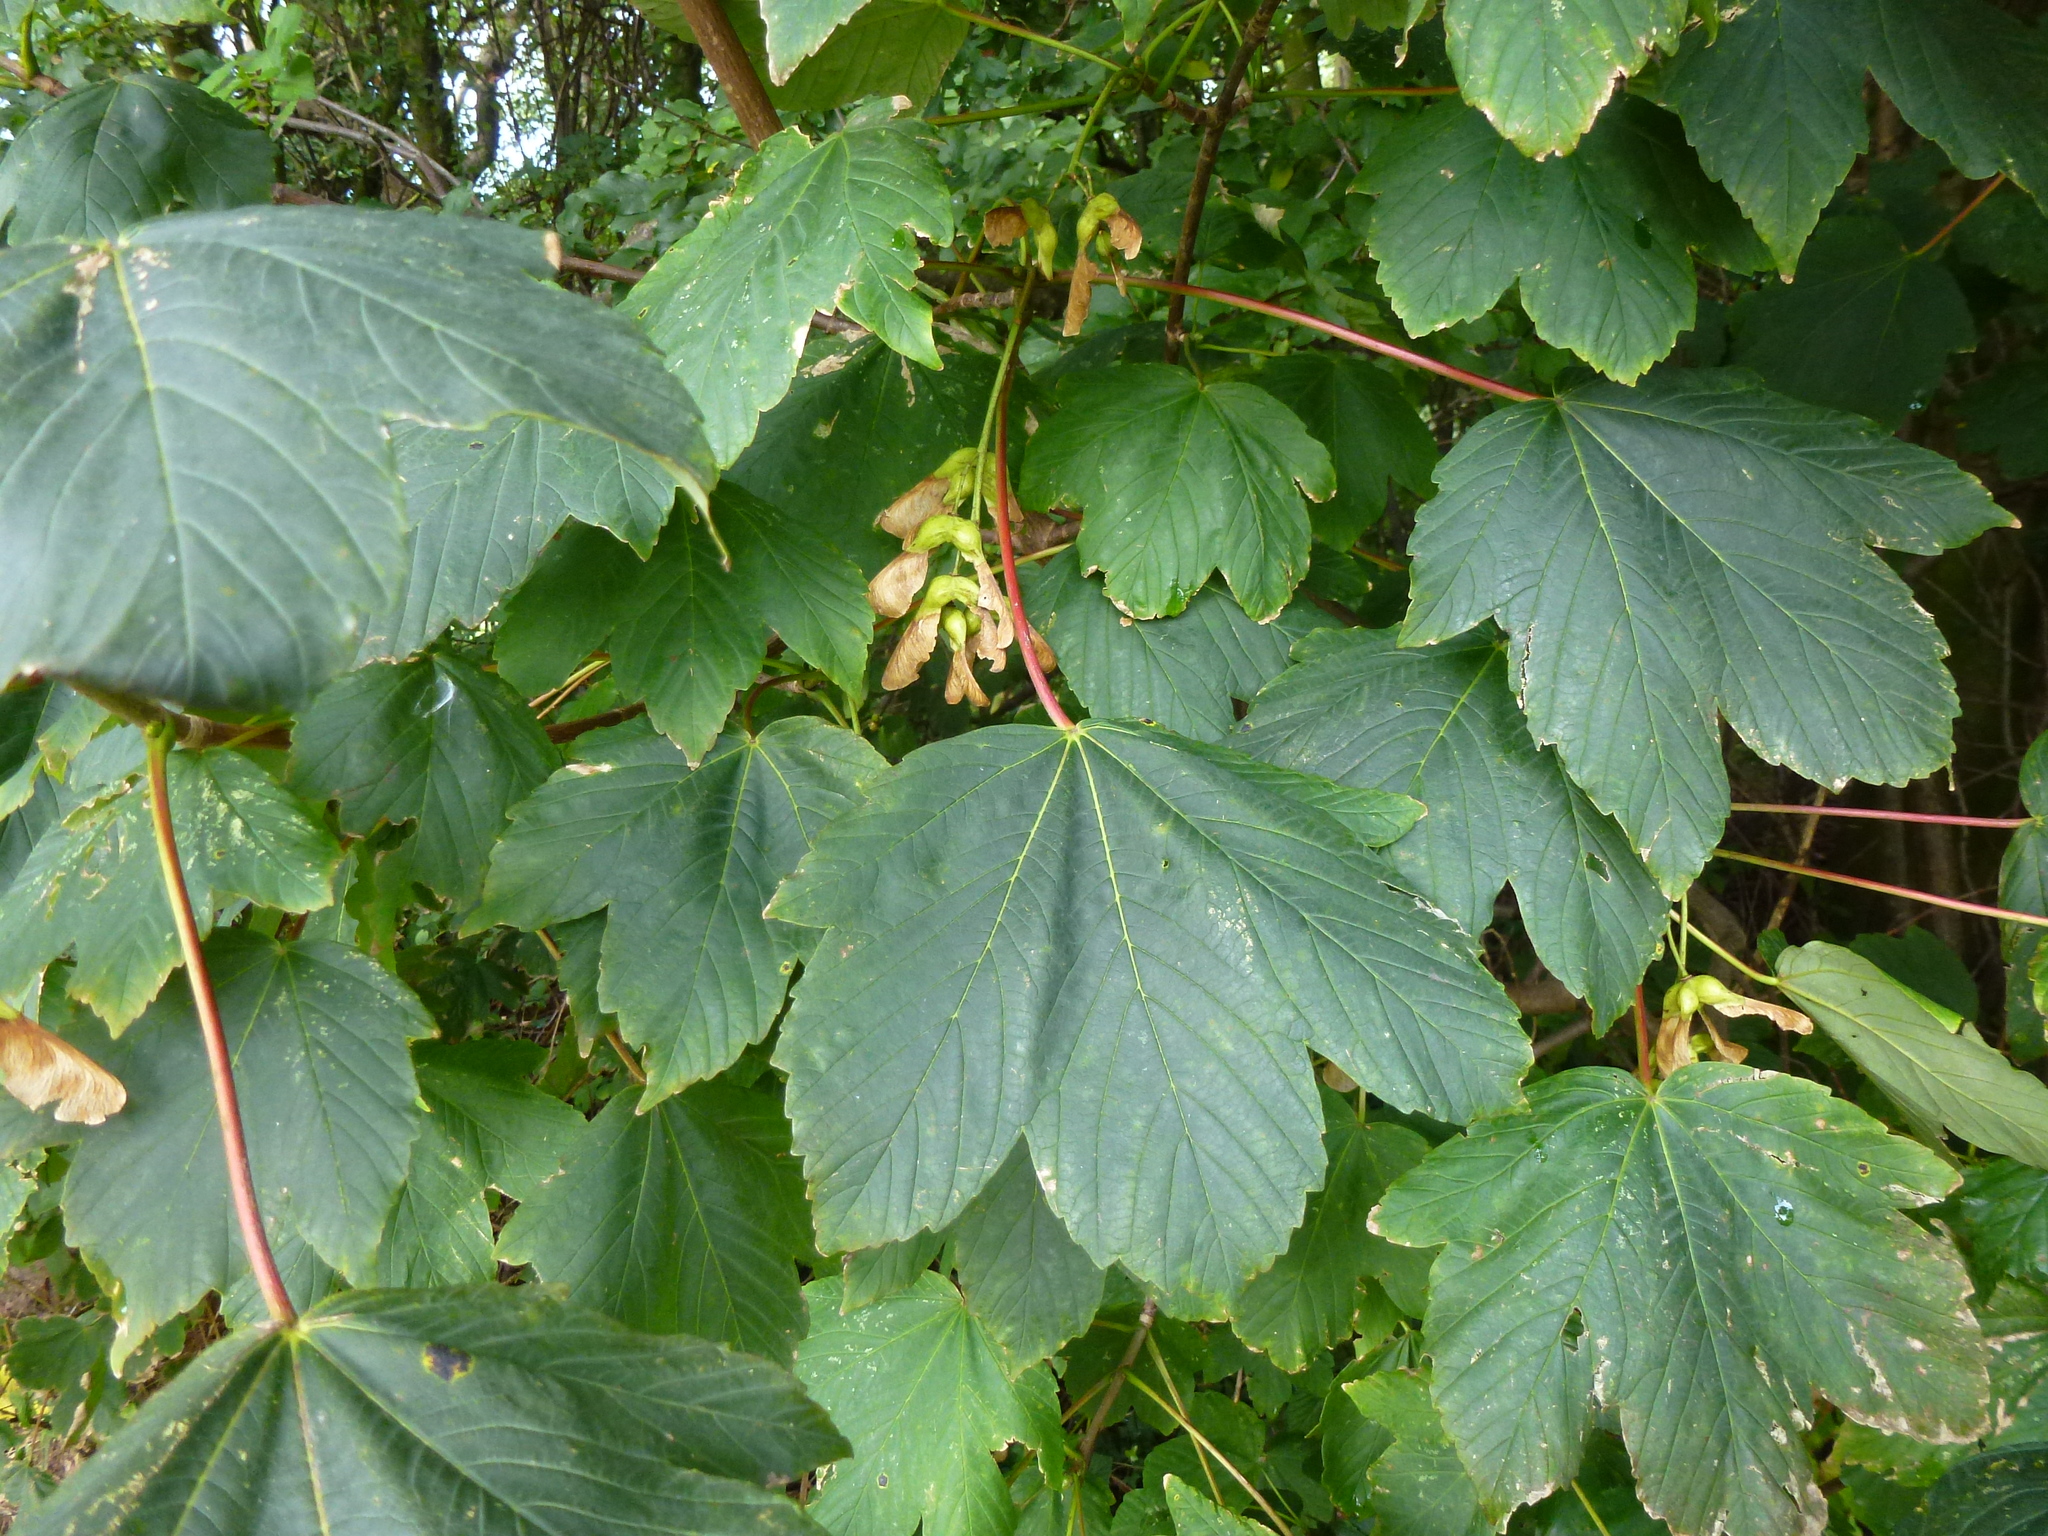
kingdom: Plantae
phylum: Tracheophyta
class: Magnoliopsida
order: Sapindales
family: Sapindaceae
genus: Acer
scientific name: Acer pseudoplatanus
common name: Sycamore
